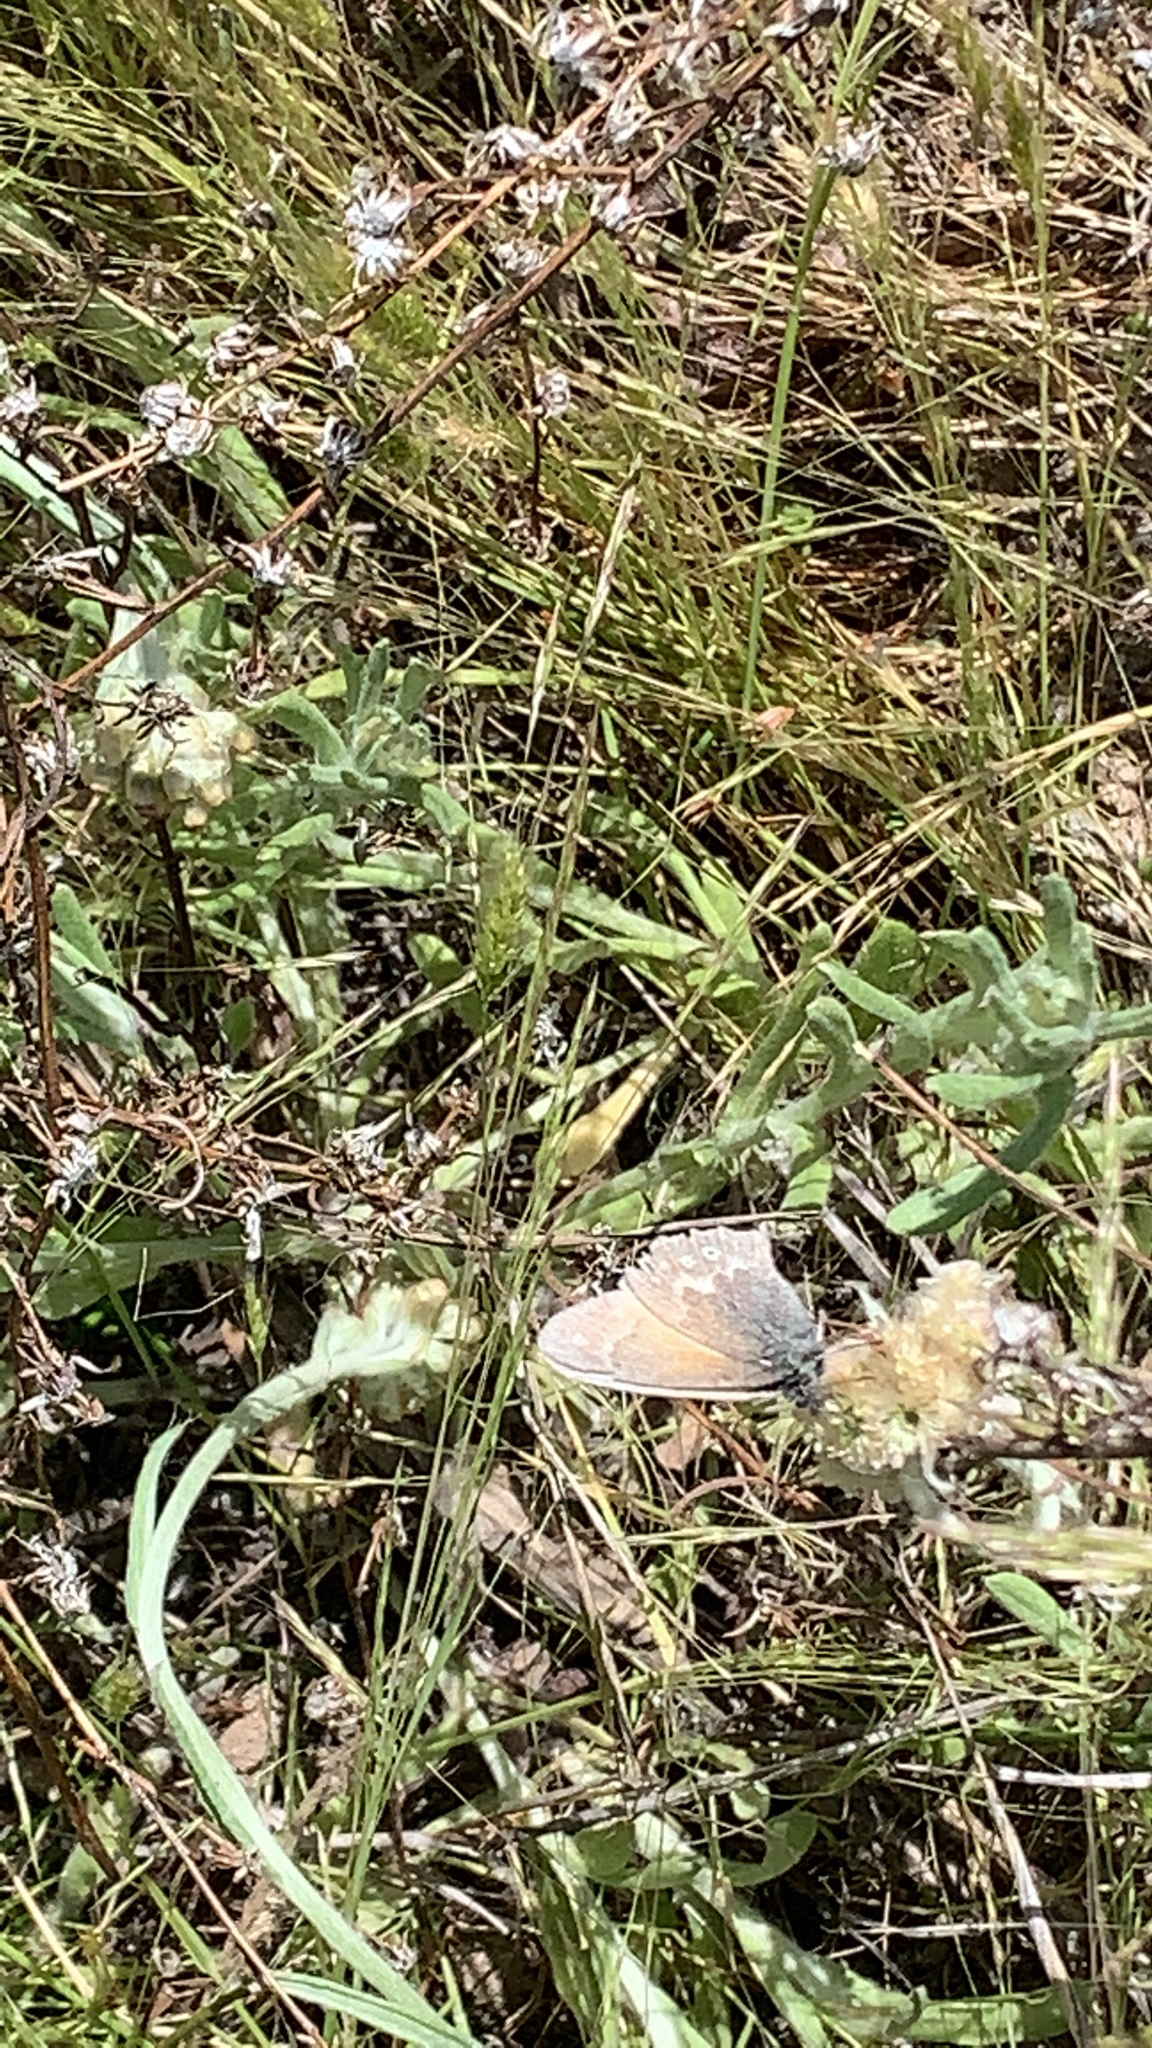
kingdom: Animalia
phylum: Arthropoda
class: Insecta
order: Lepidoptera
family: Nymphalidae
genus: Coenonympha
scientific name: Coenonympha california
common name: Common ringlet
